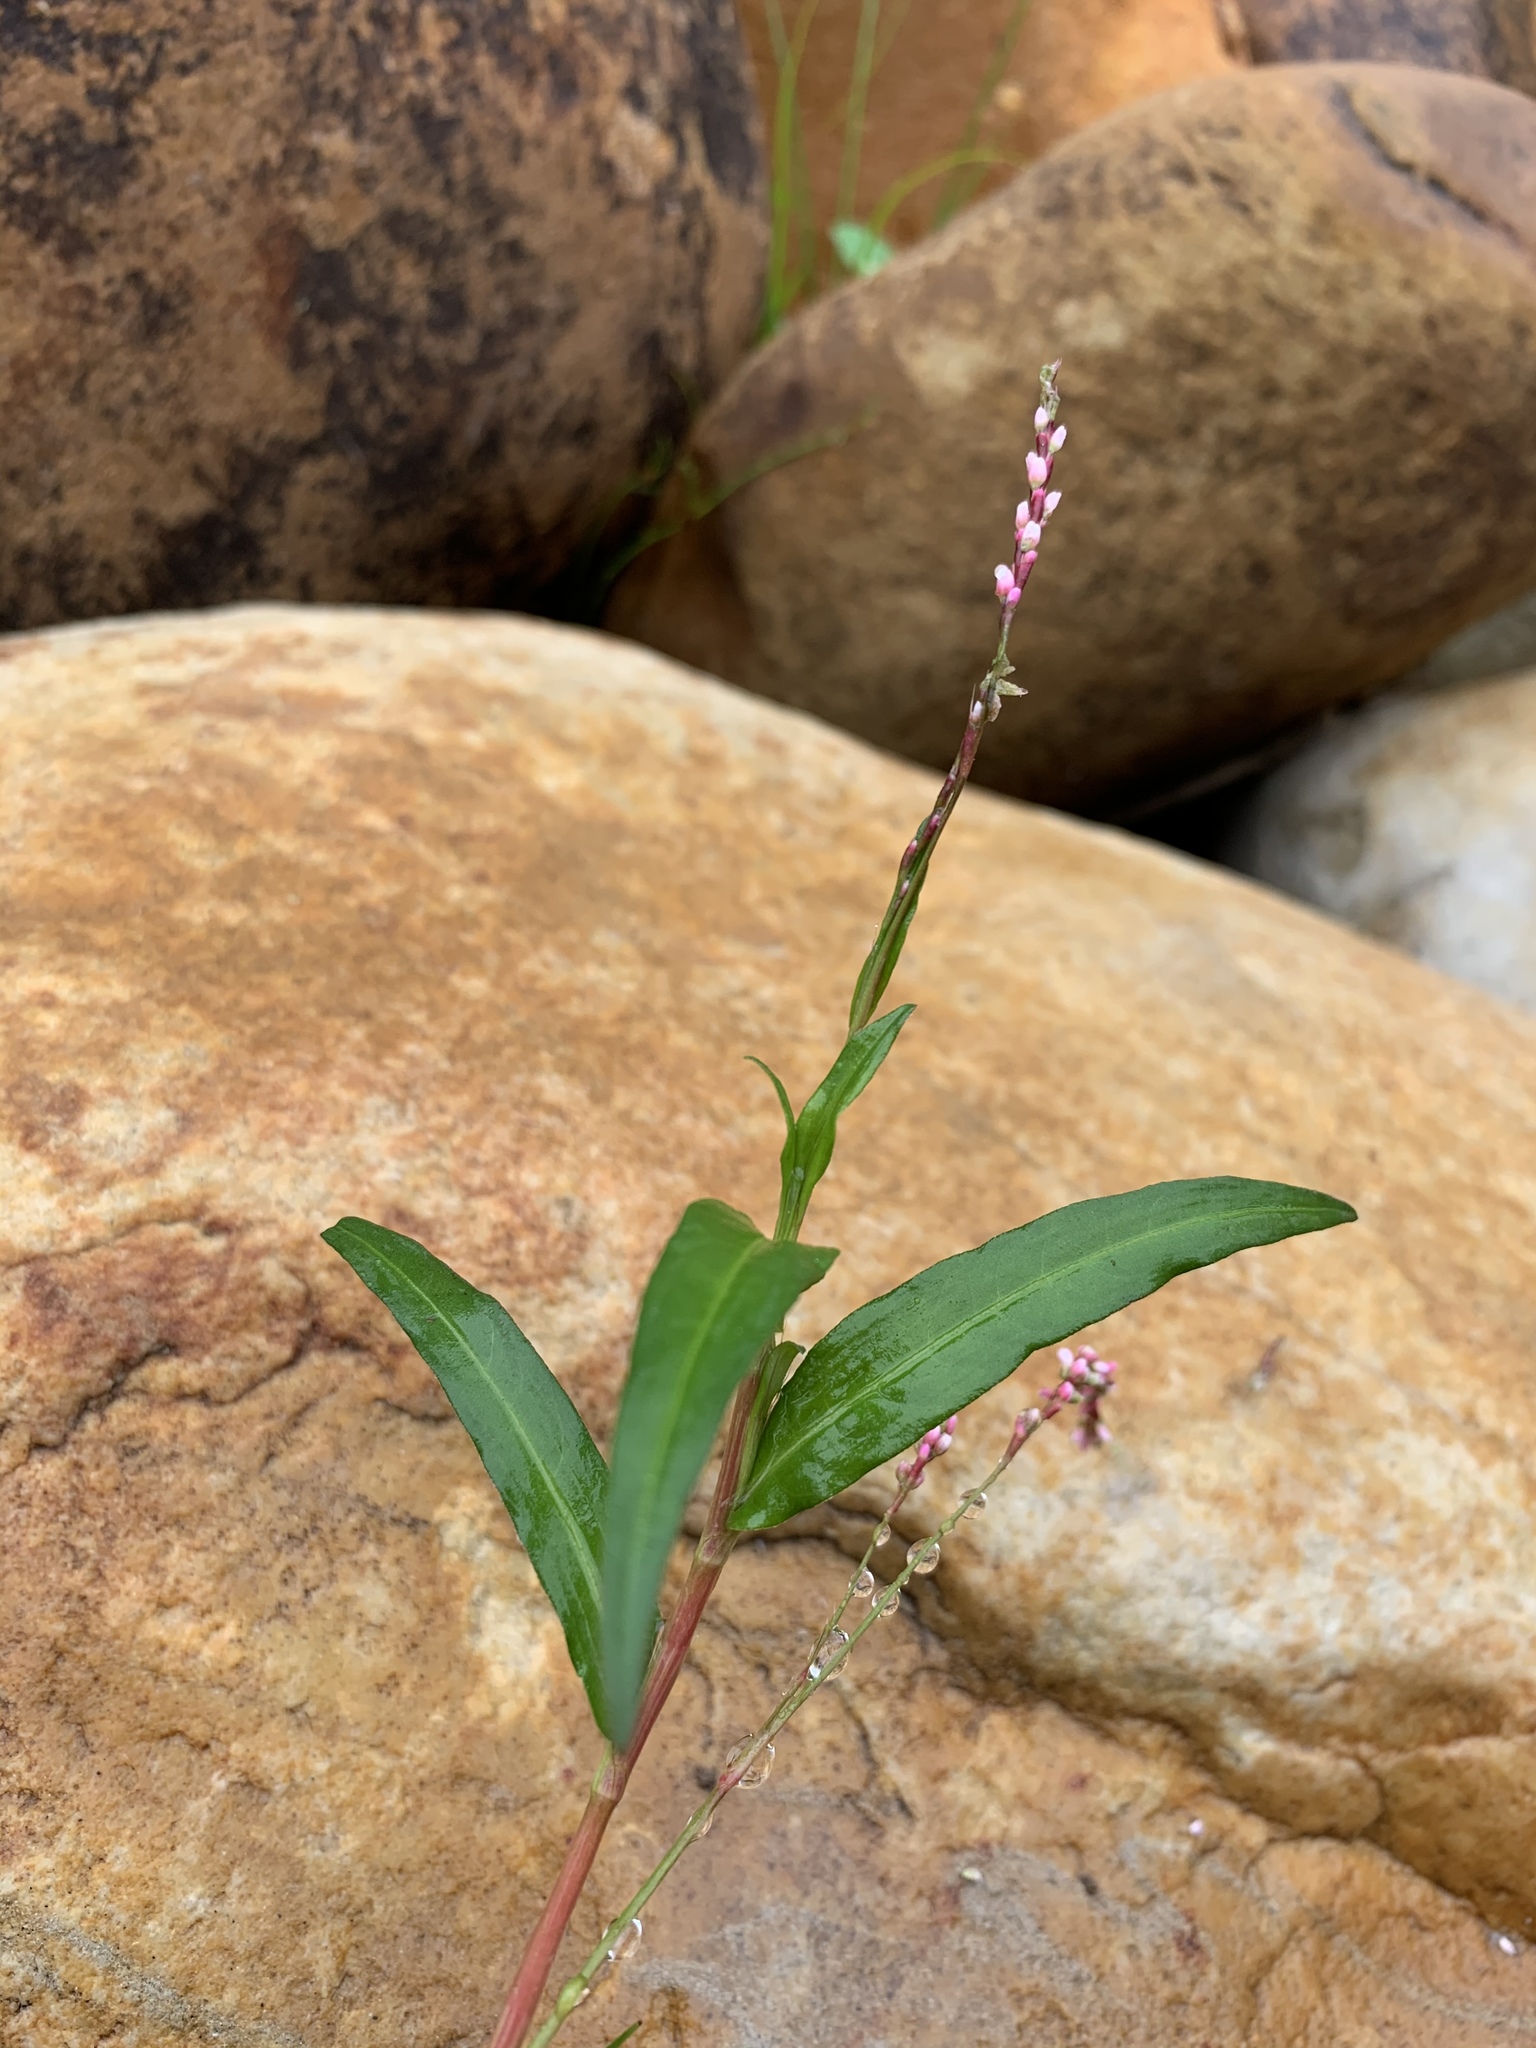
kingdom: Plantae
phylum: Tracheophyta
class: Magnoliopsida
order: Caryophyllales
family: Polygonaceae
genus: Persicaria
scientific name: Persicaria decipiens
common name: Willow-weed
